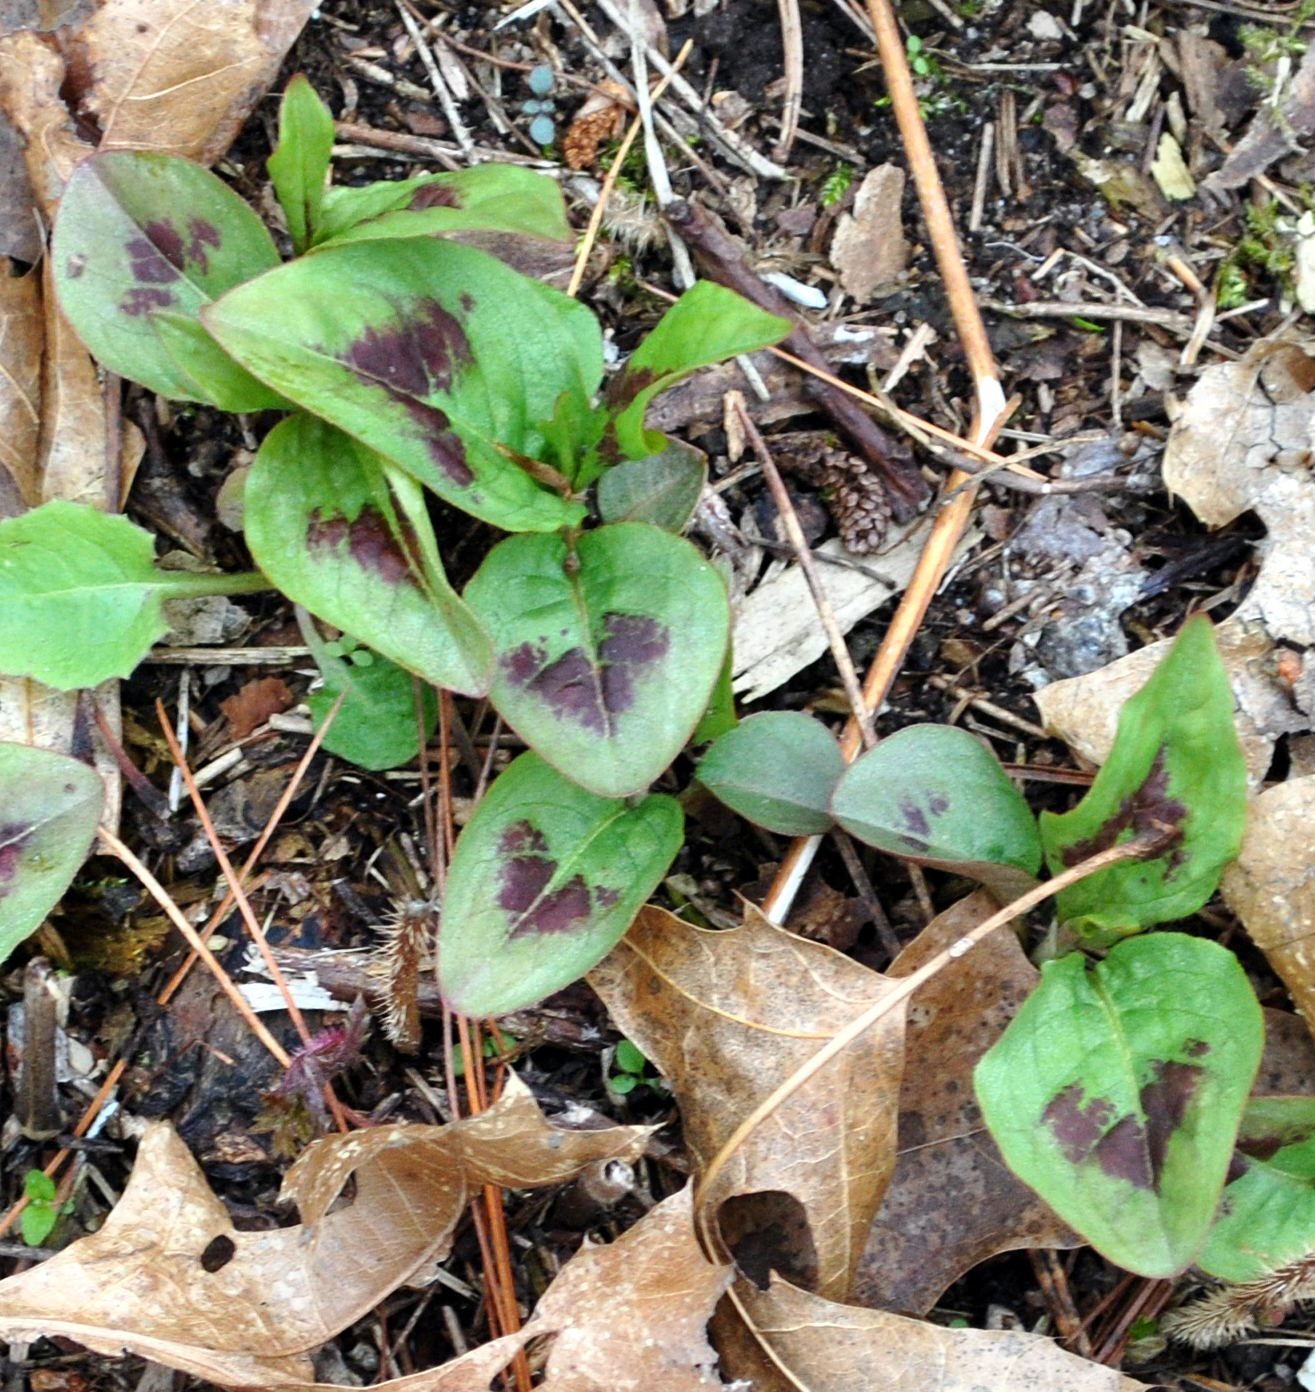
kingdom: Plantae
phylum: Tracheophyta
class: Magnoliopsida
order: Caryophyllales
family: Polygonaceae
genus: Persicaria
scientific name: Persicaria virginiana
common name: Jumpseed
